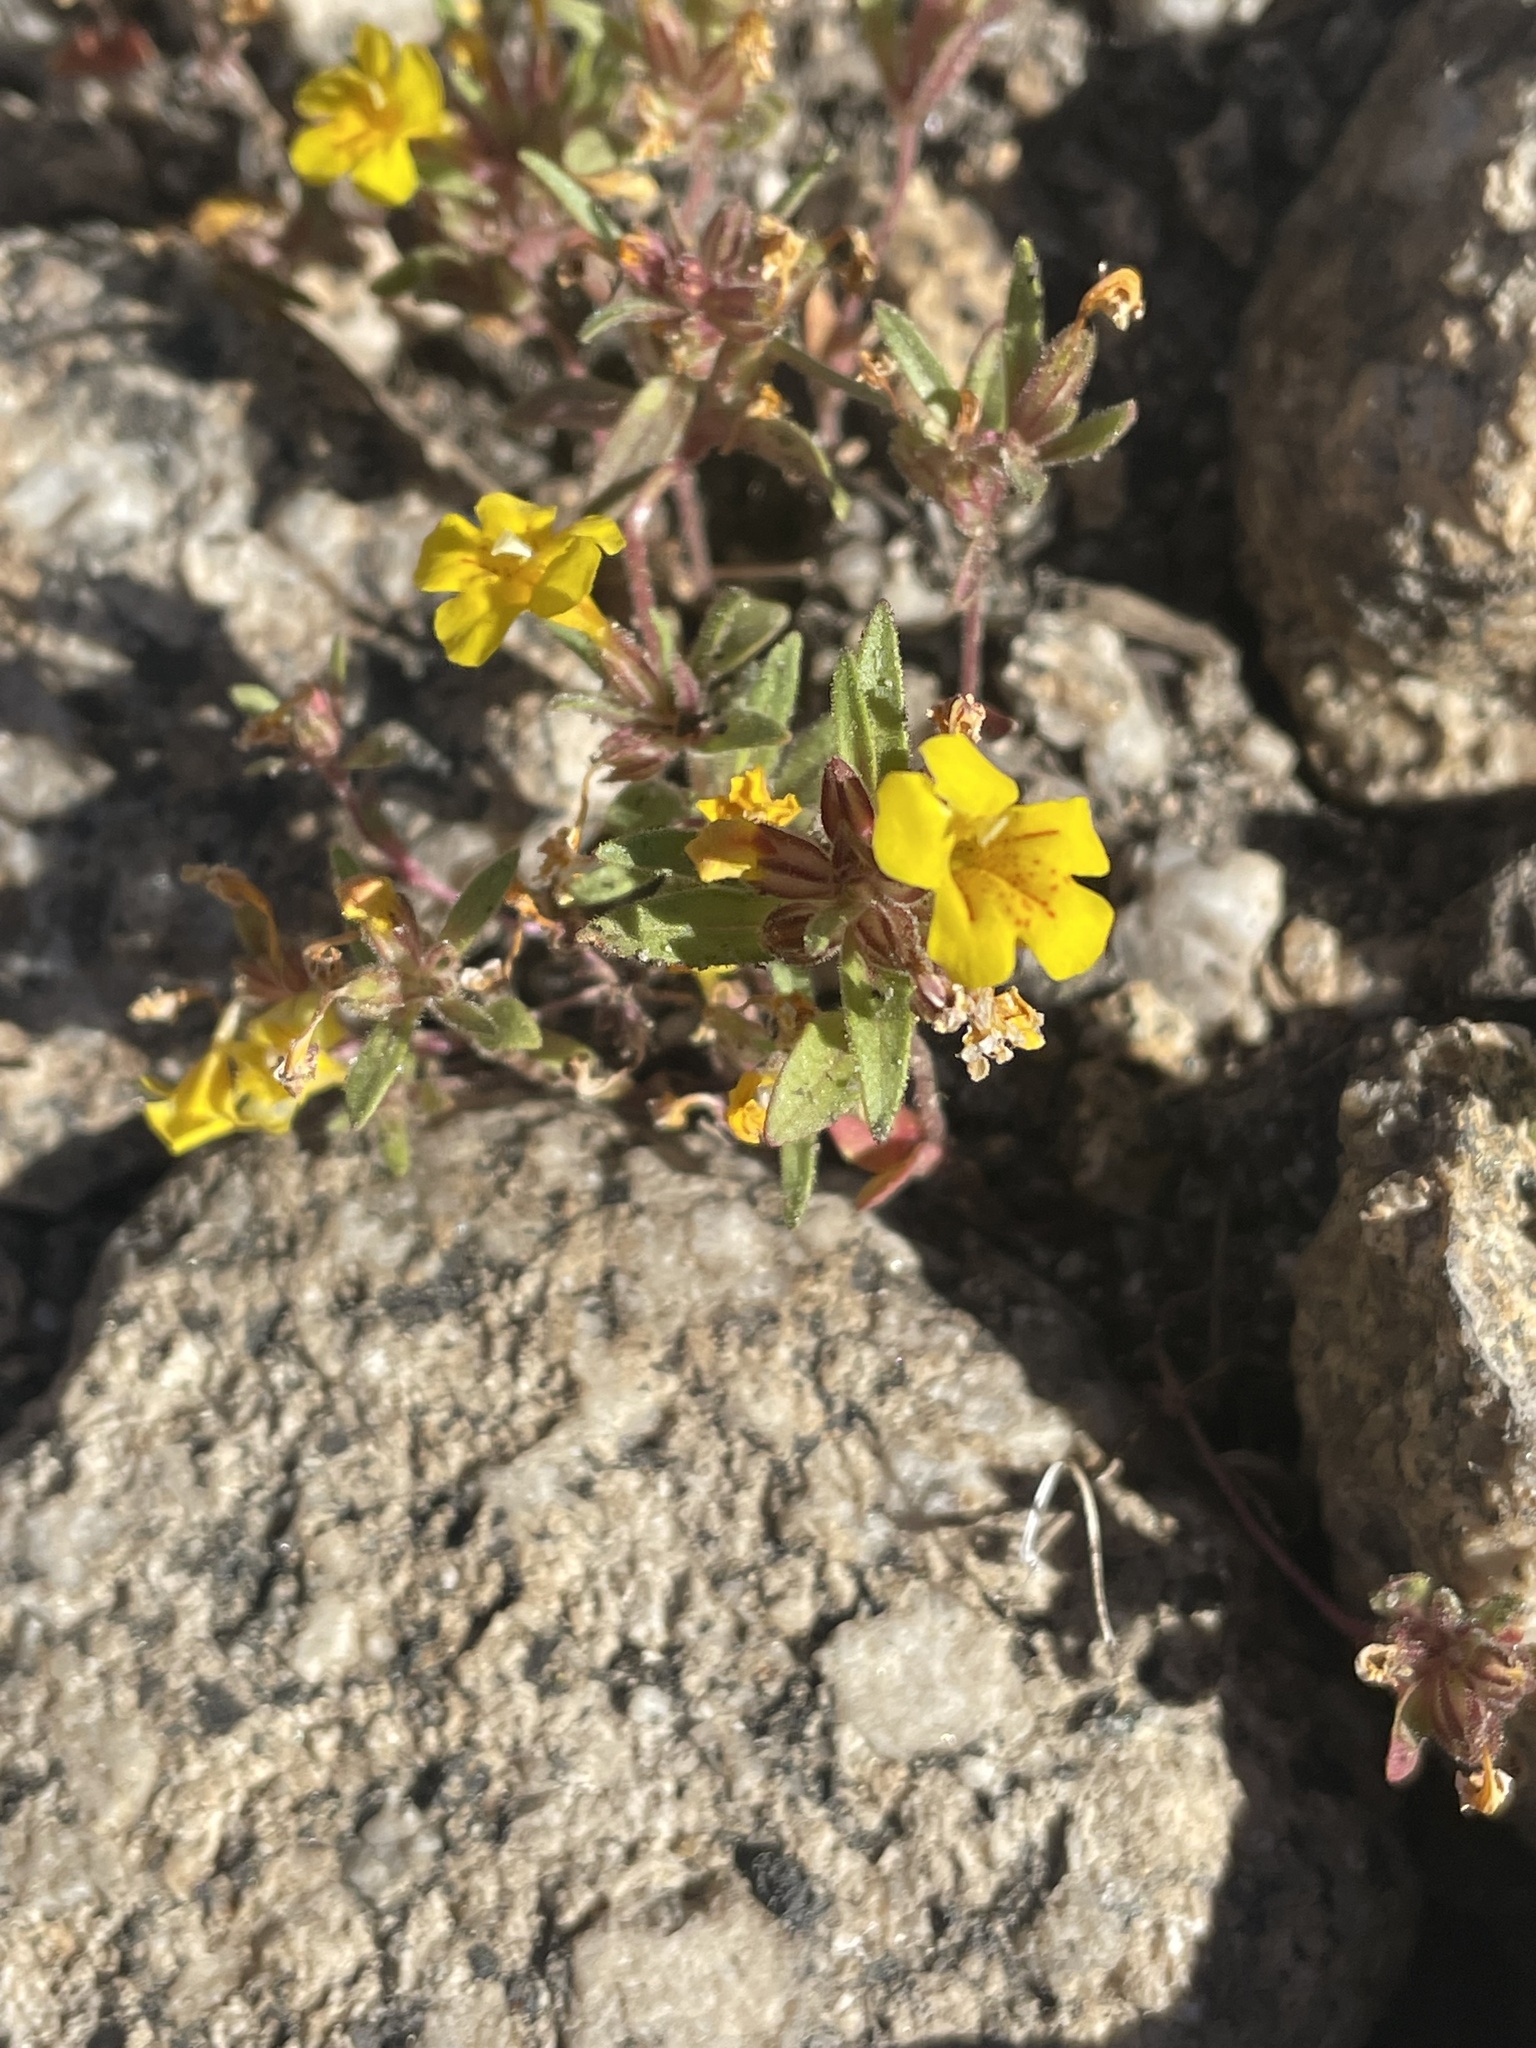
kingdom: Plantae
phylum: Tracheophyta
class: Magnoliopsida
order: Lamiales
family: Phrymaceae
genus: Diplacus
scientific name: Diplacus mephiticus
